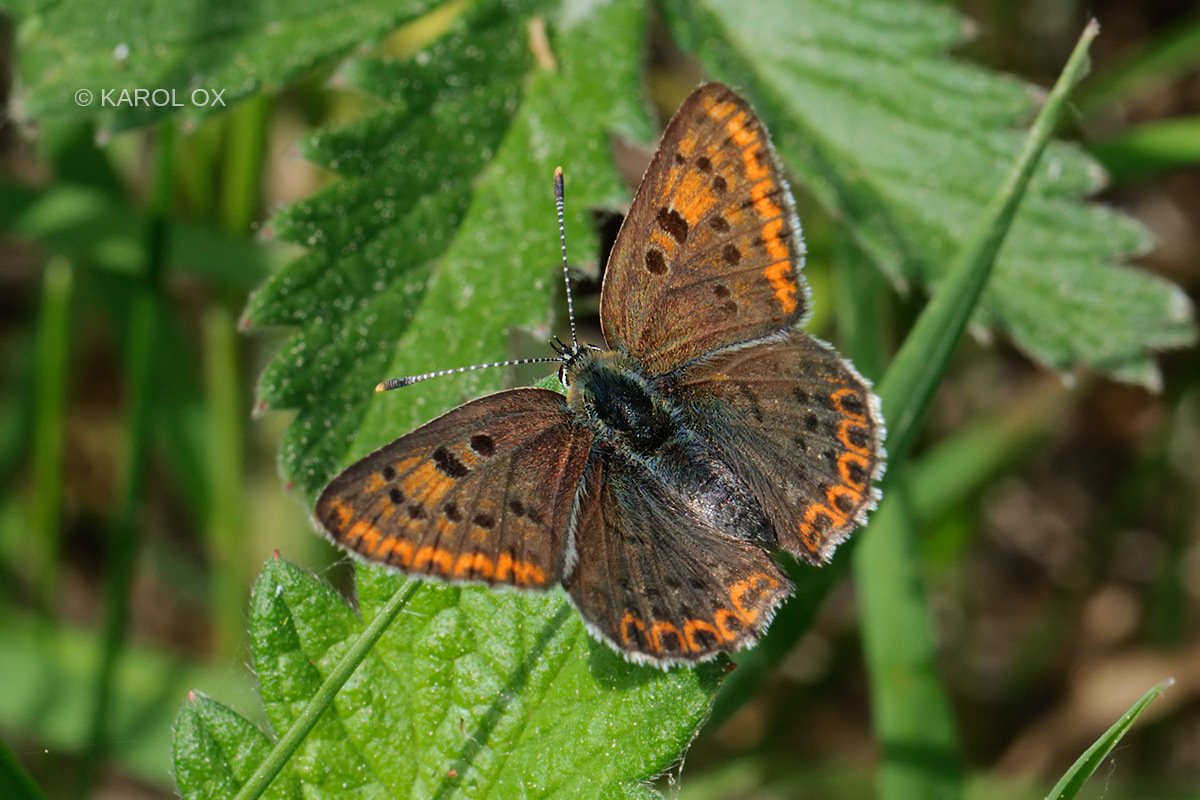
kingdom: Animalia
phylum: Arthropoda
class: Insecta
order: Lepidoptera
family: Lycaenidae
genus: Loweia
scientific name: Loweia tityrus
